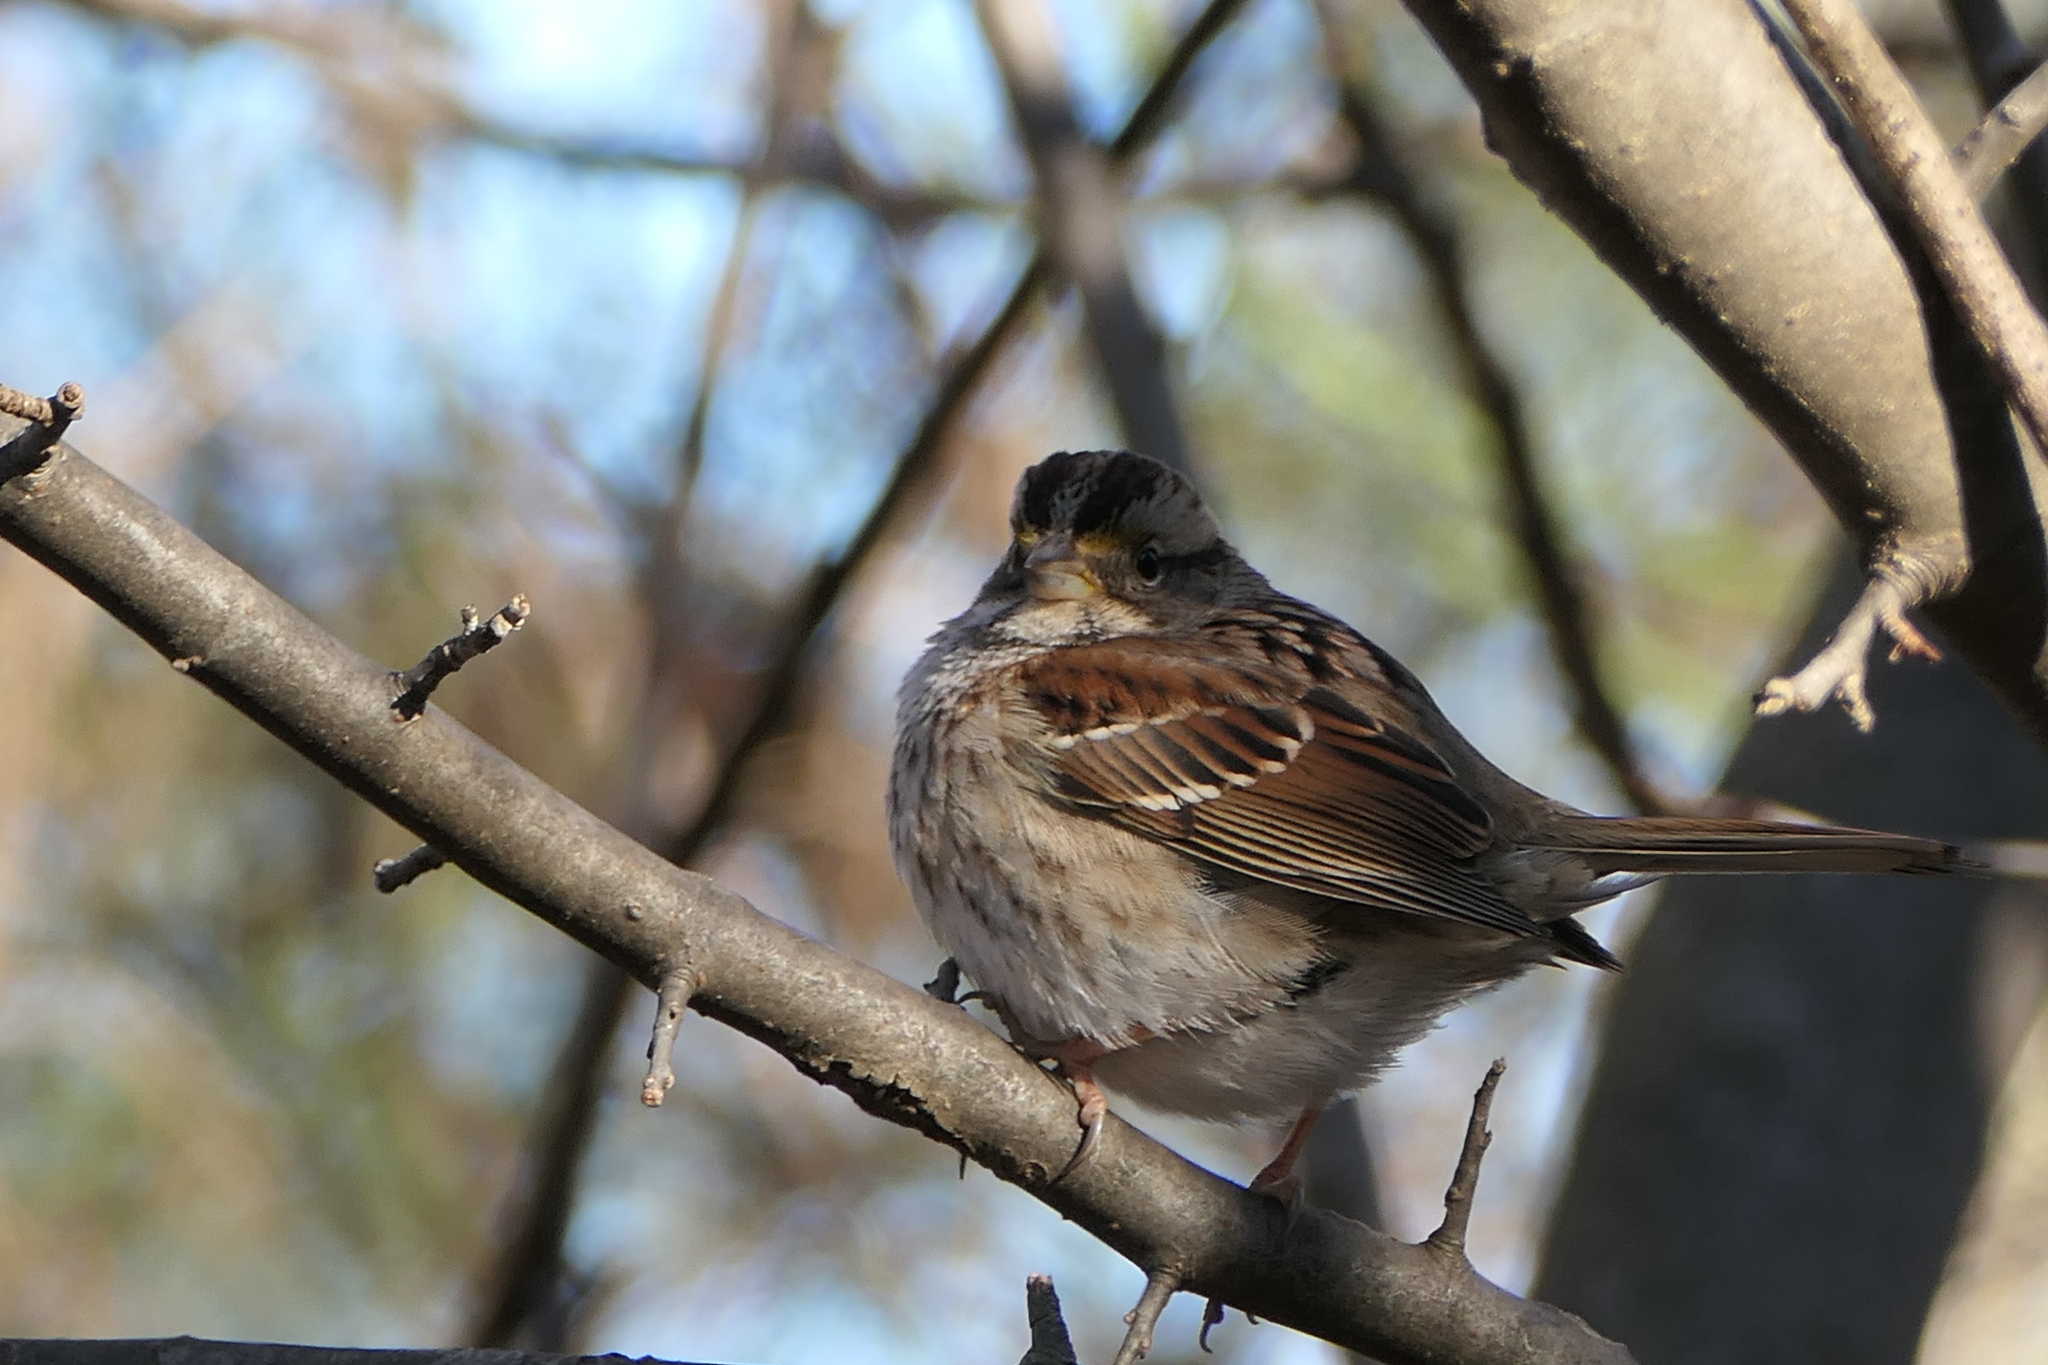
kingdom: Animalia
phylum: Chordata
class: Aves
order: Passeriformes
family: Passerellidae
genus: Zonotrichia
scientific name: Zonotrichia albicollis
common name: White-throated sparrow
